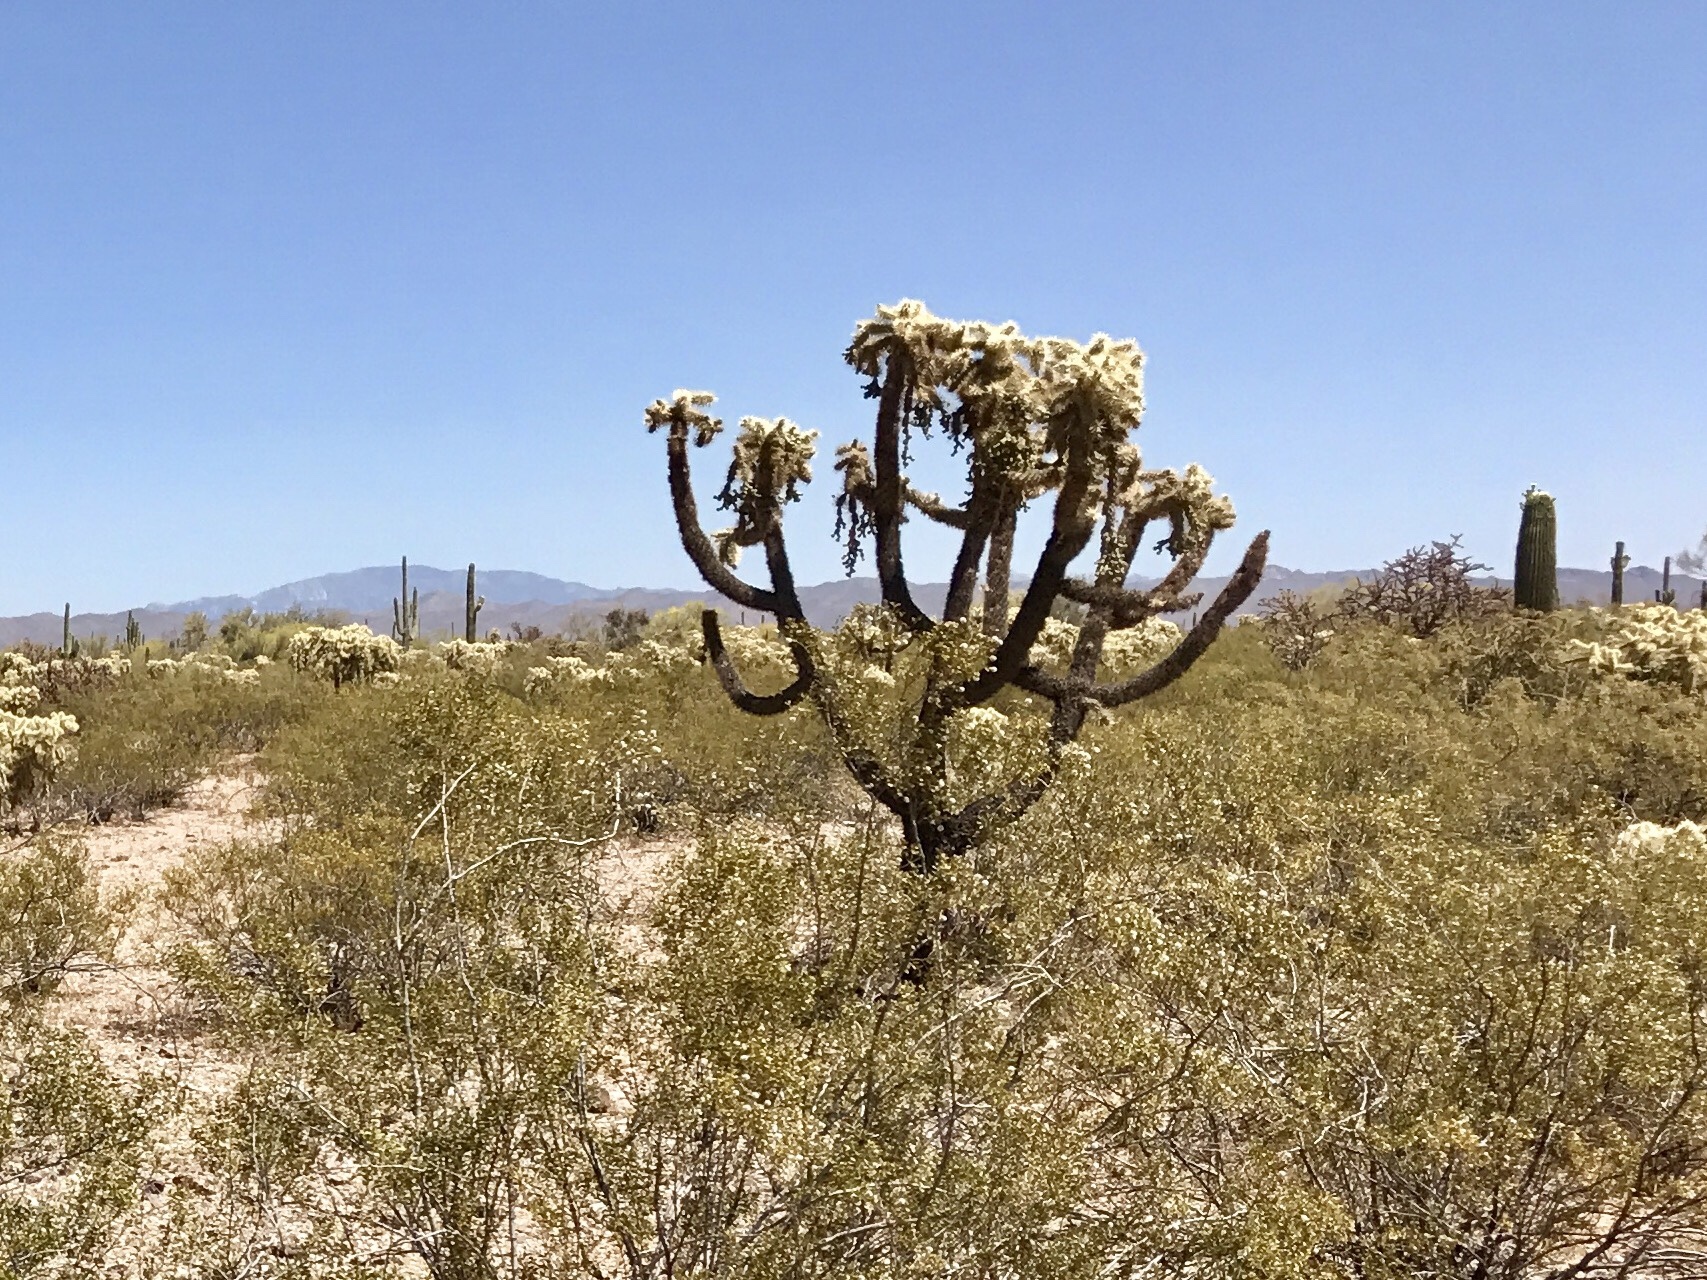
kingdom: Plantae
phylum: Tracheophyta
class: Magnoliopsida
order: Caryophyllales
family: Cactaceae
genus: Cylindropuntia
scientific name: Cylindropuntia fulgida
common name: Jumping cholla
